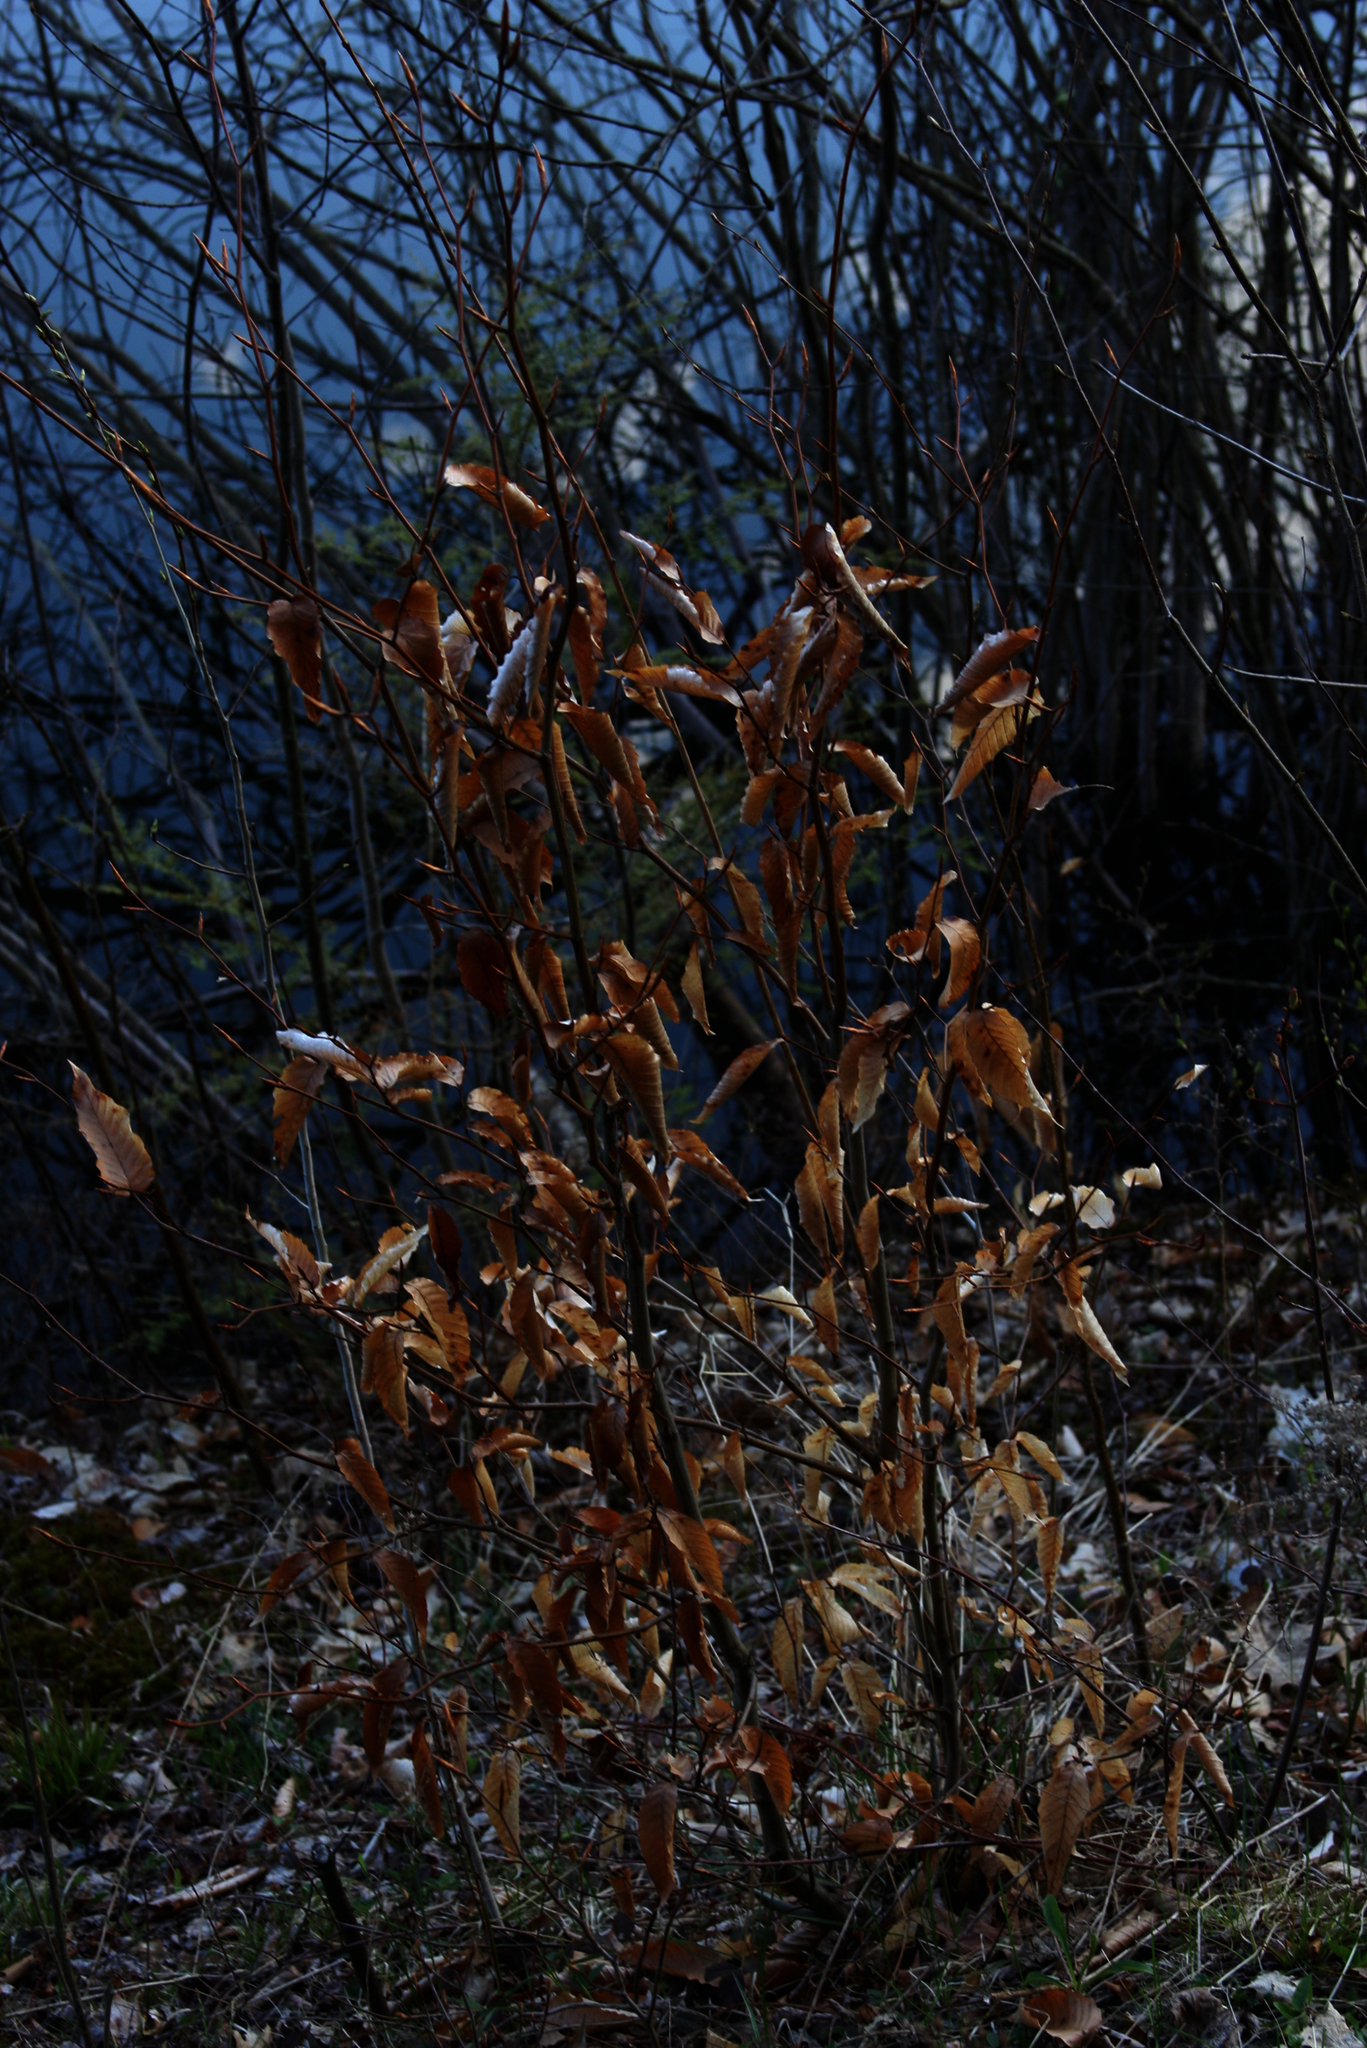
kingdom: Plantae
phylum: Tracheophyta
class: Magnoliopsida
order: Fagales
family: Fagaceae
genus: Fagus
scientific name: Fagus grandifolia
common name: American beech
